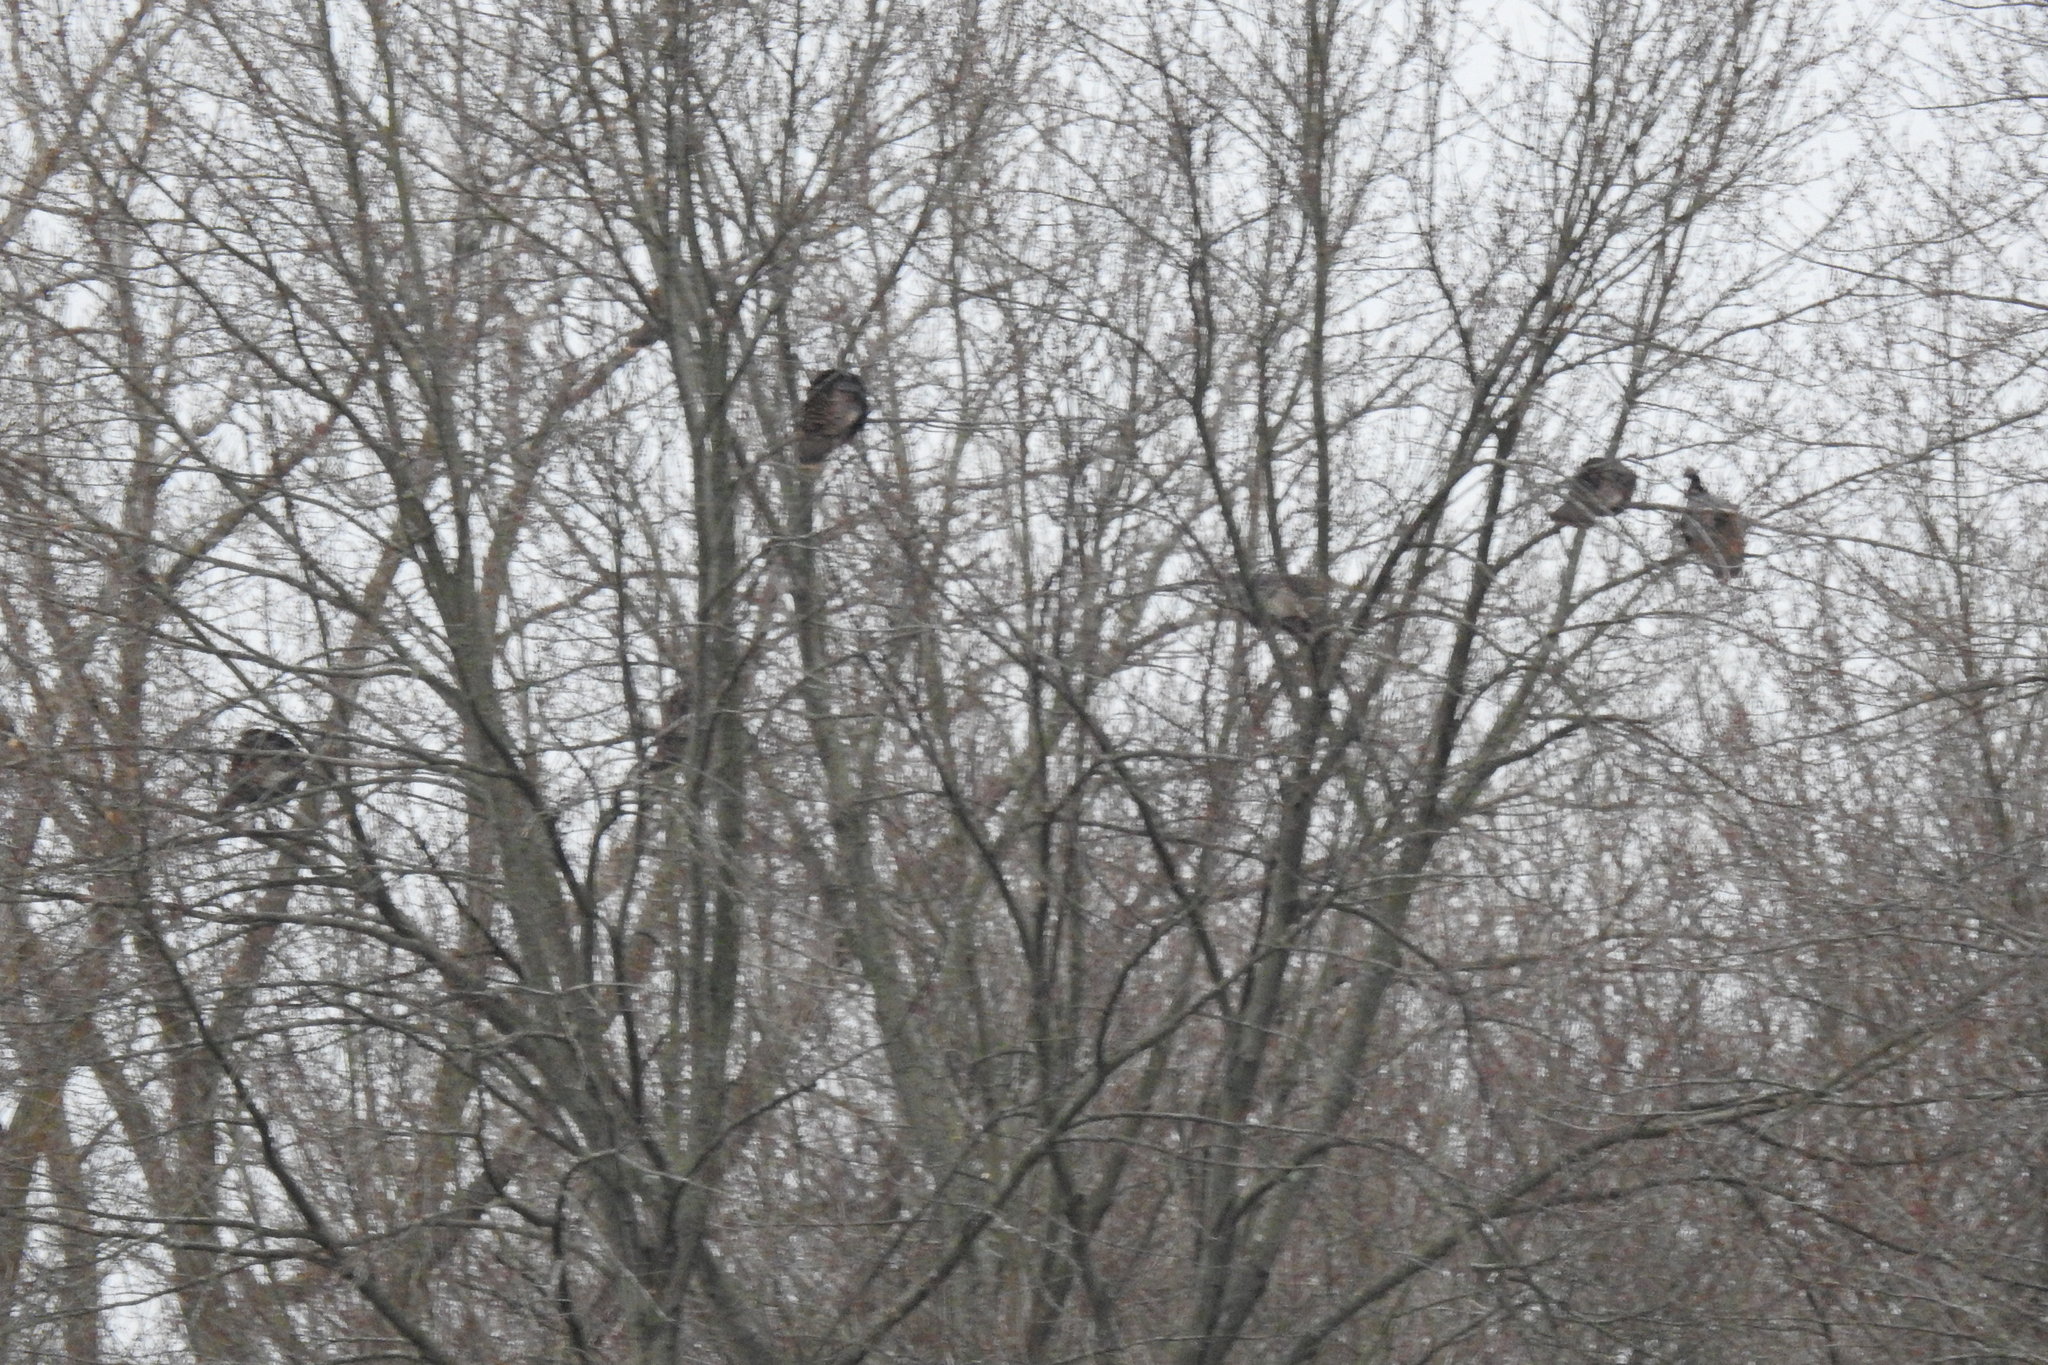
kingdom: Animalia
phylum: Chordata
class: Aves
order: Galliformes
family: Phasianidae
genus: Meleagris
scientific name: Meleagris gallopavo
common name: Wild turkey
